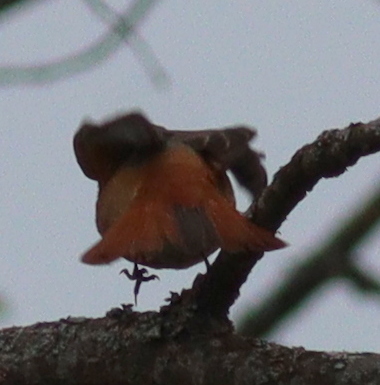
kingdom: Animalia
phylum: Chordata
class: Aves
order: Passeriformes
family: Muscicapidae
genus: Phoenicurus
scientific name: Phoenicurus phoenicurus
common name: Common redstart
